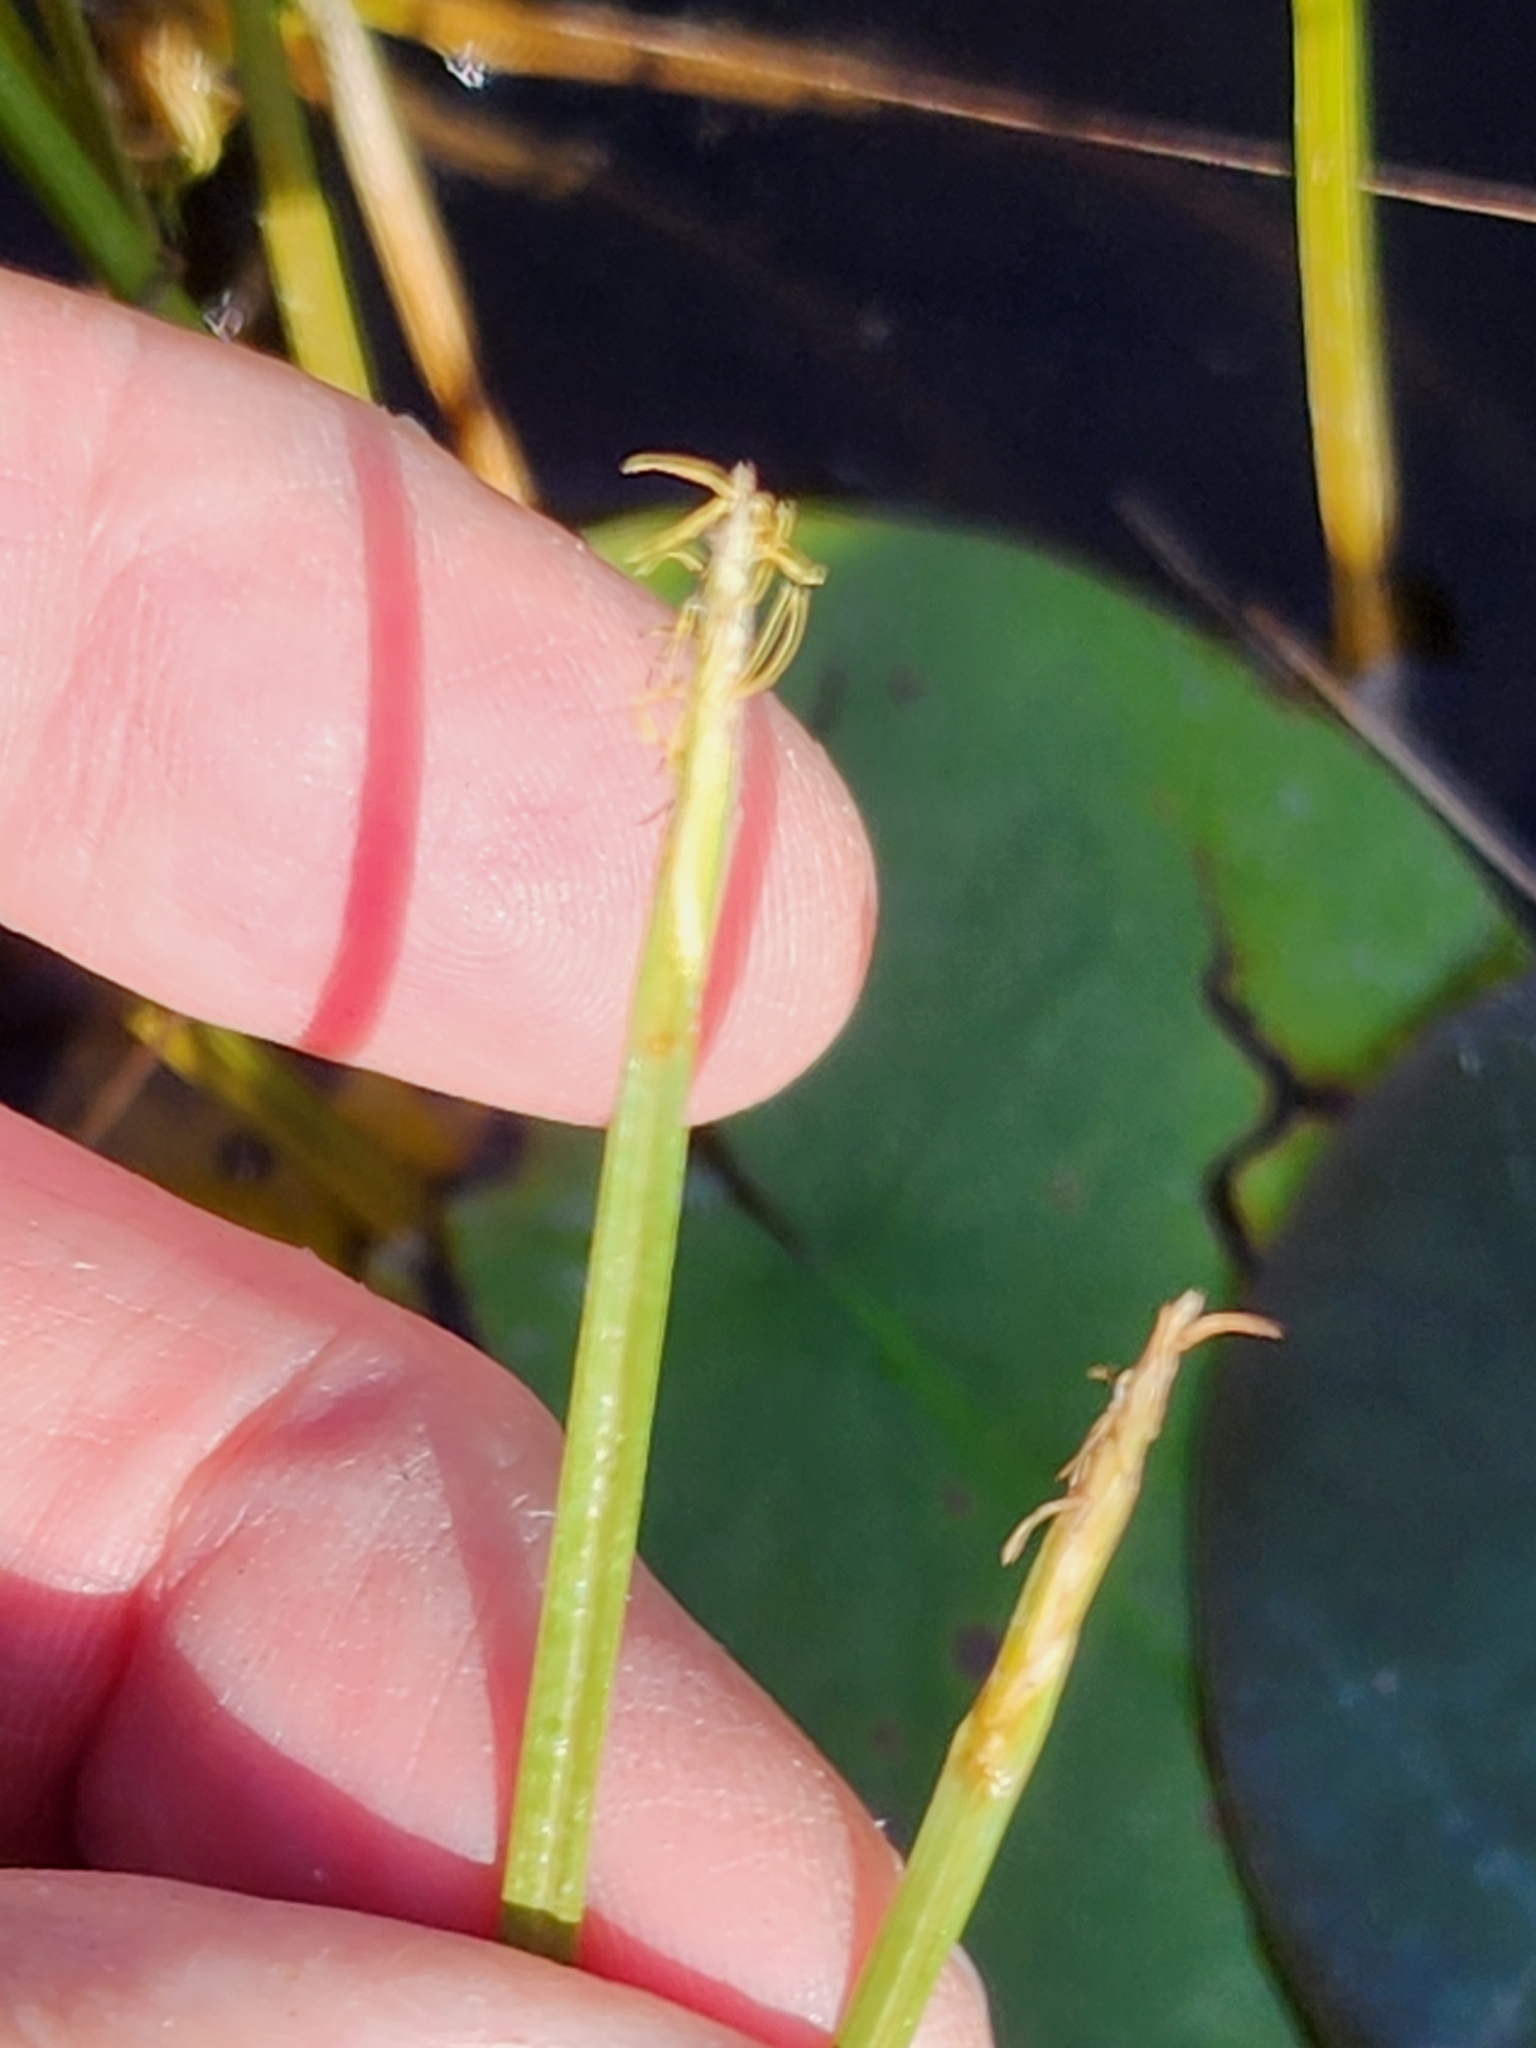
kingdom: Plantae
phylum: Tracheophyta
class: Liliopsida
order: Poales
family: Cyperaceae
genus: Eleocharis
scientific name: Eleocharis robbinsii
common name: Robbins' spikerush
